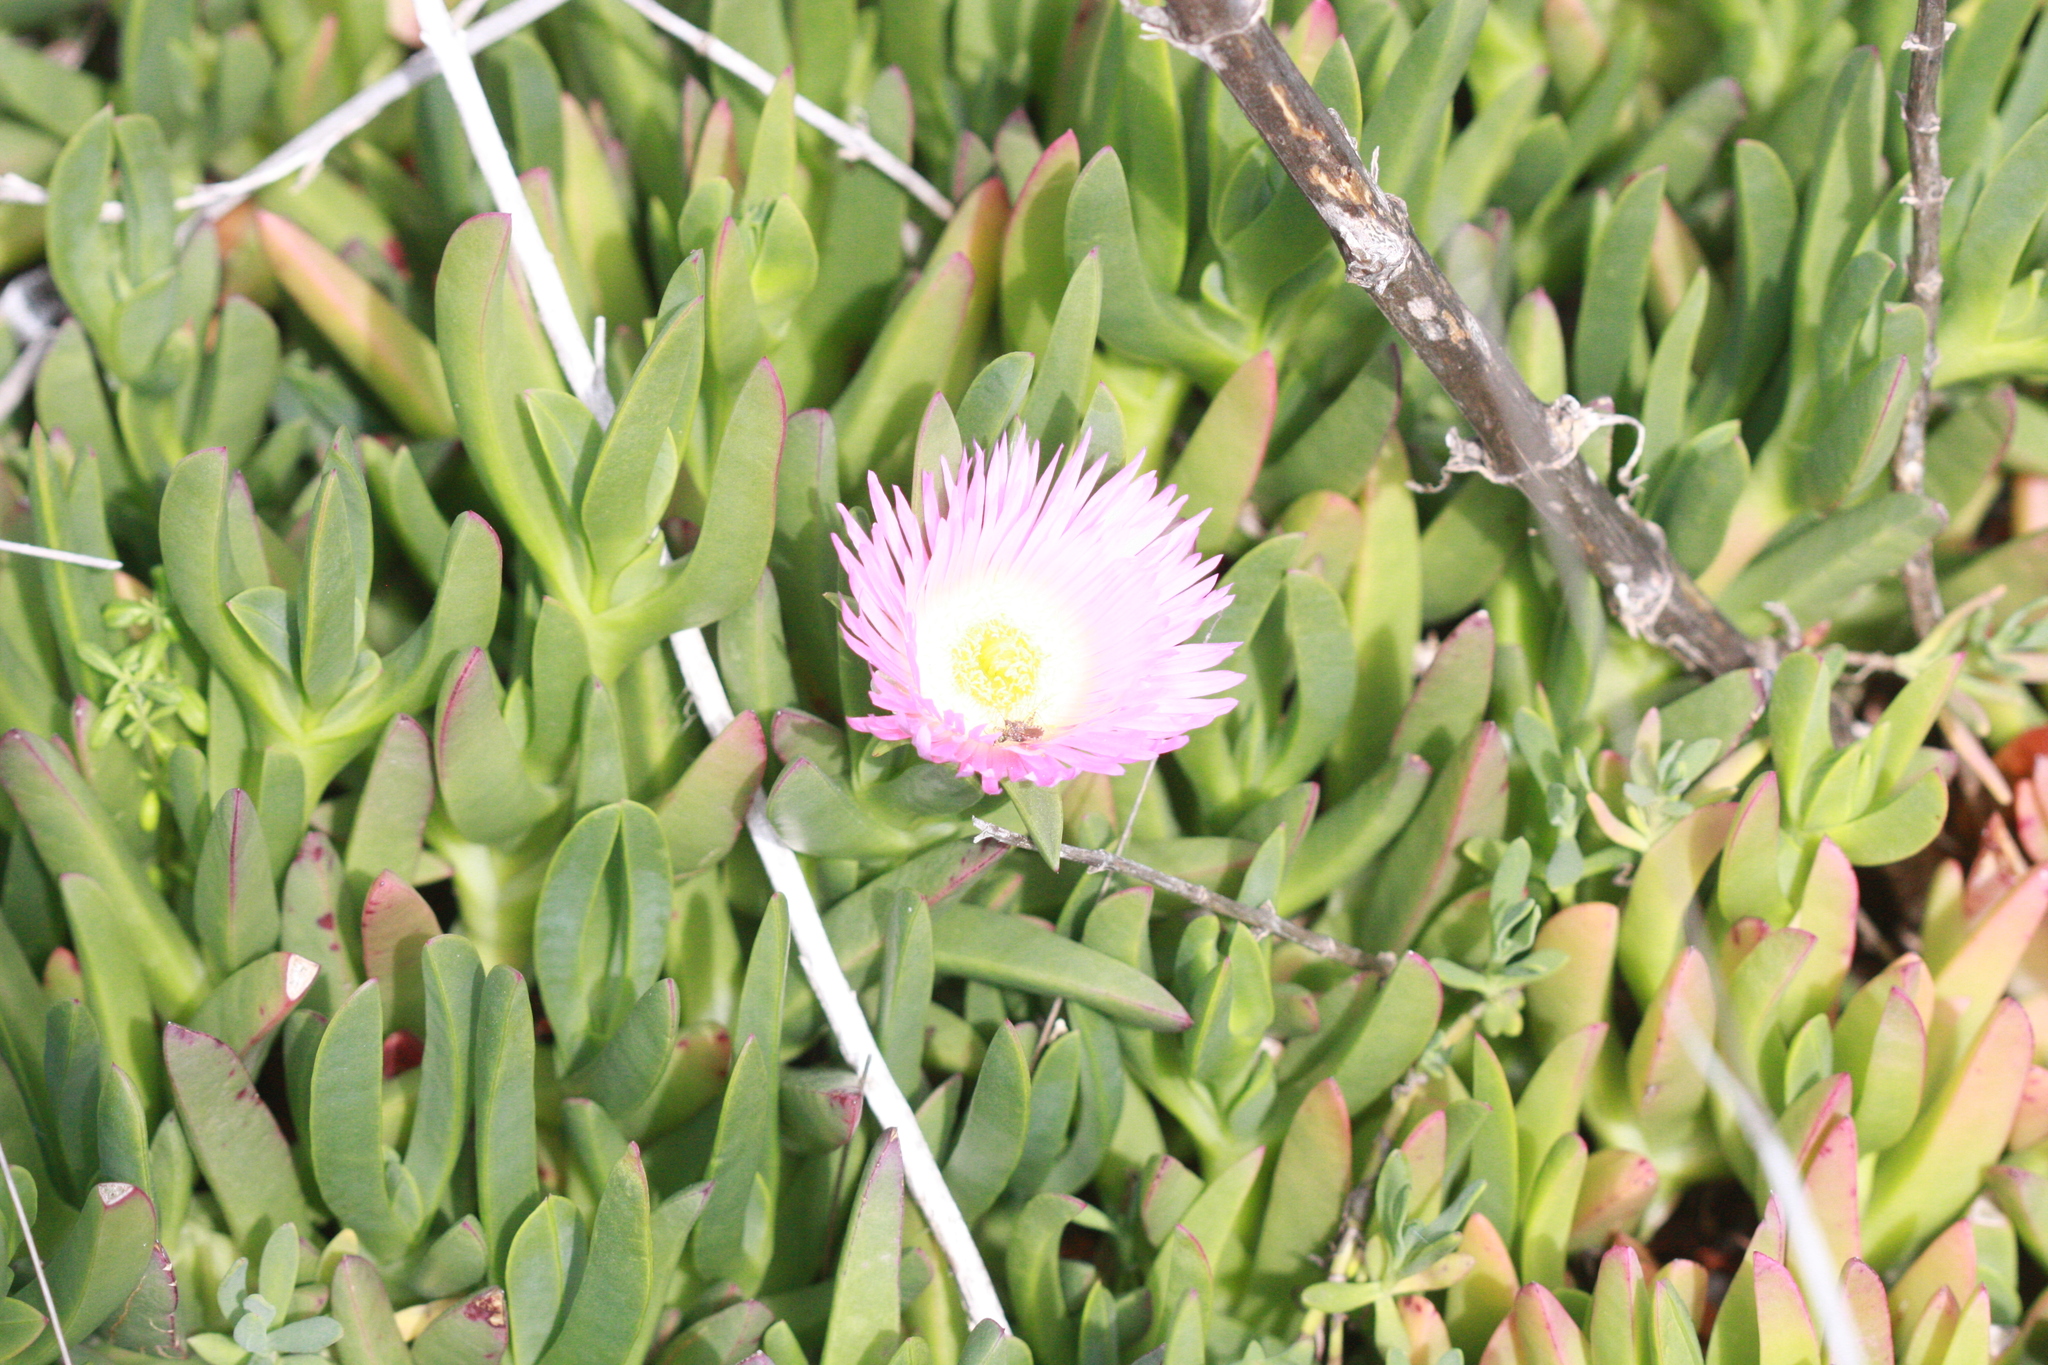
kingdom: Plantae
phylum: Tracheophyta
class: Magnoliopsida
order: Caryophyllales
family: Aizoaceae
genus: Carpobrotus
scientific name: Carpobrotus edulis
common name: Hottentot-fig
